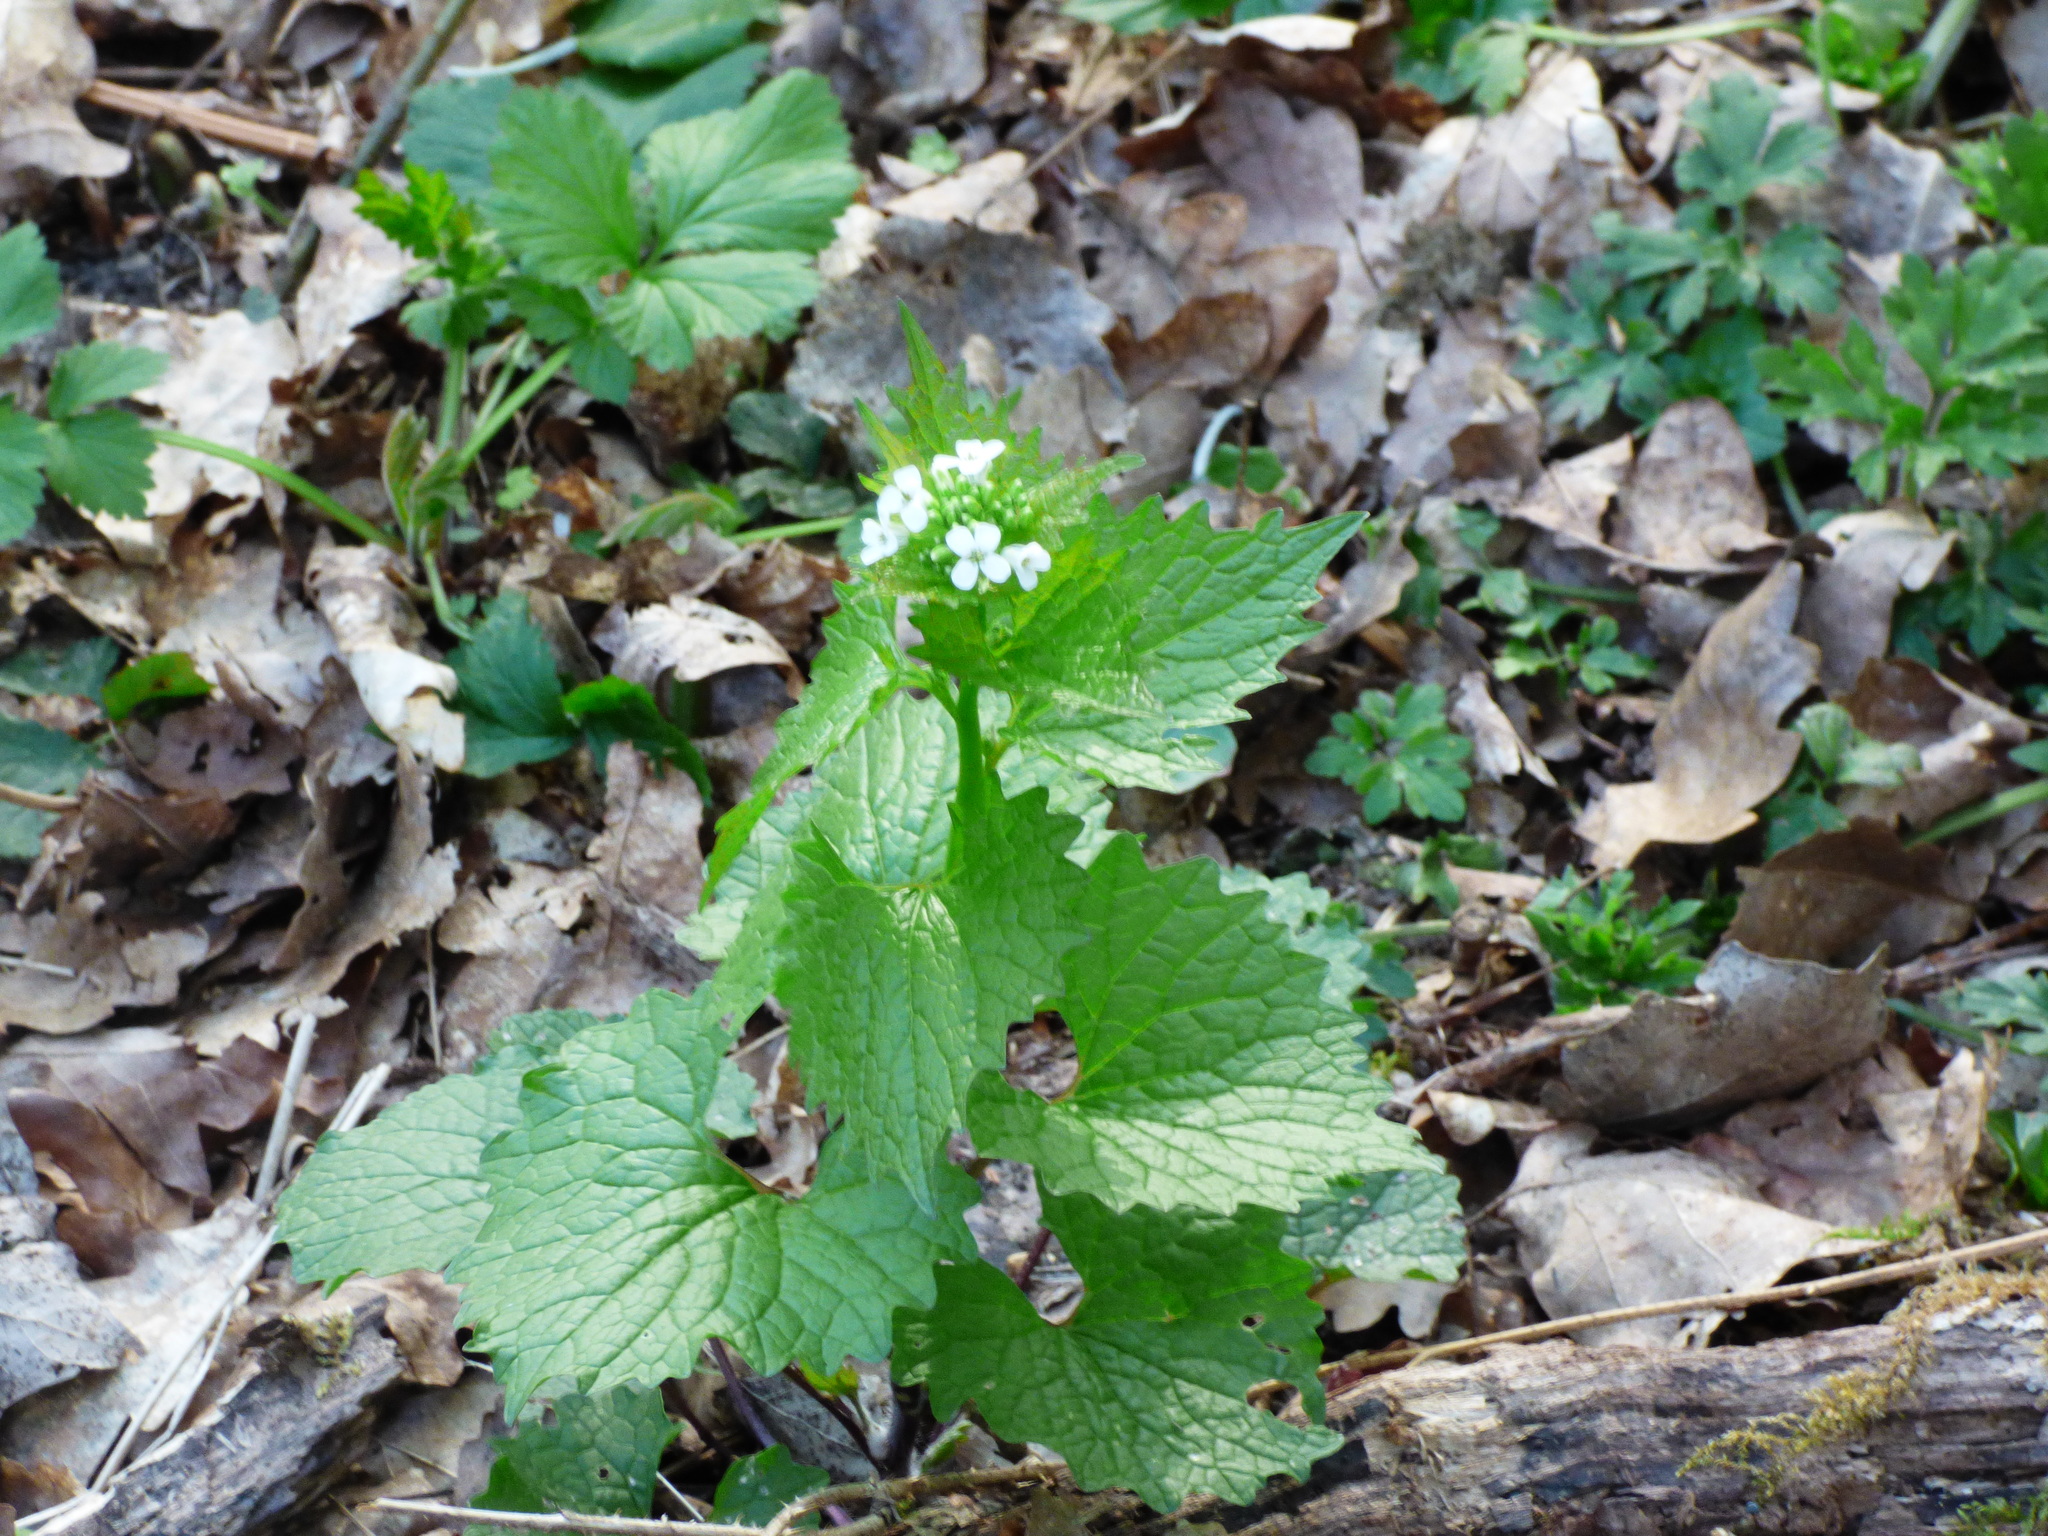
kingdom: Plantae
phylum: Tracheophyta
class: Magnoliopsida
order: Brassicales
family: Brassicaceae
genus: Alliaria
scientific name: Alliaria petiolata
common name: Garlic mustard
